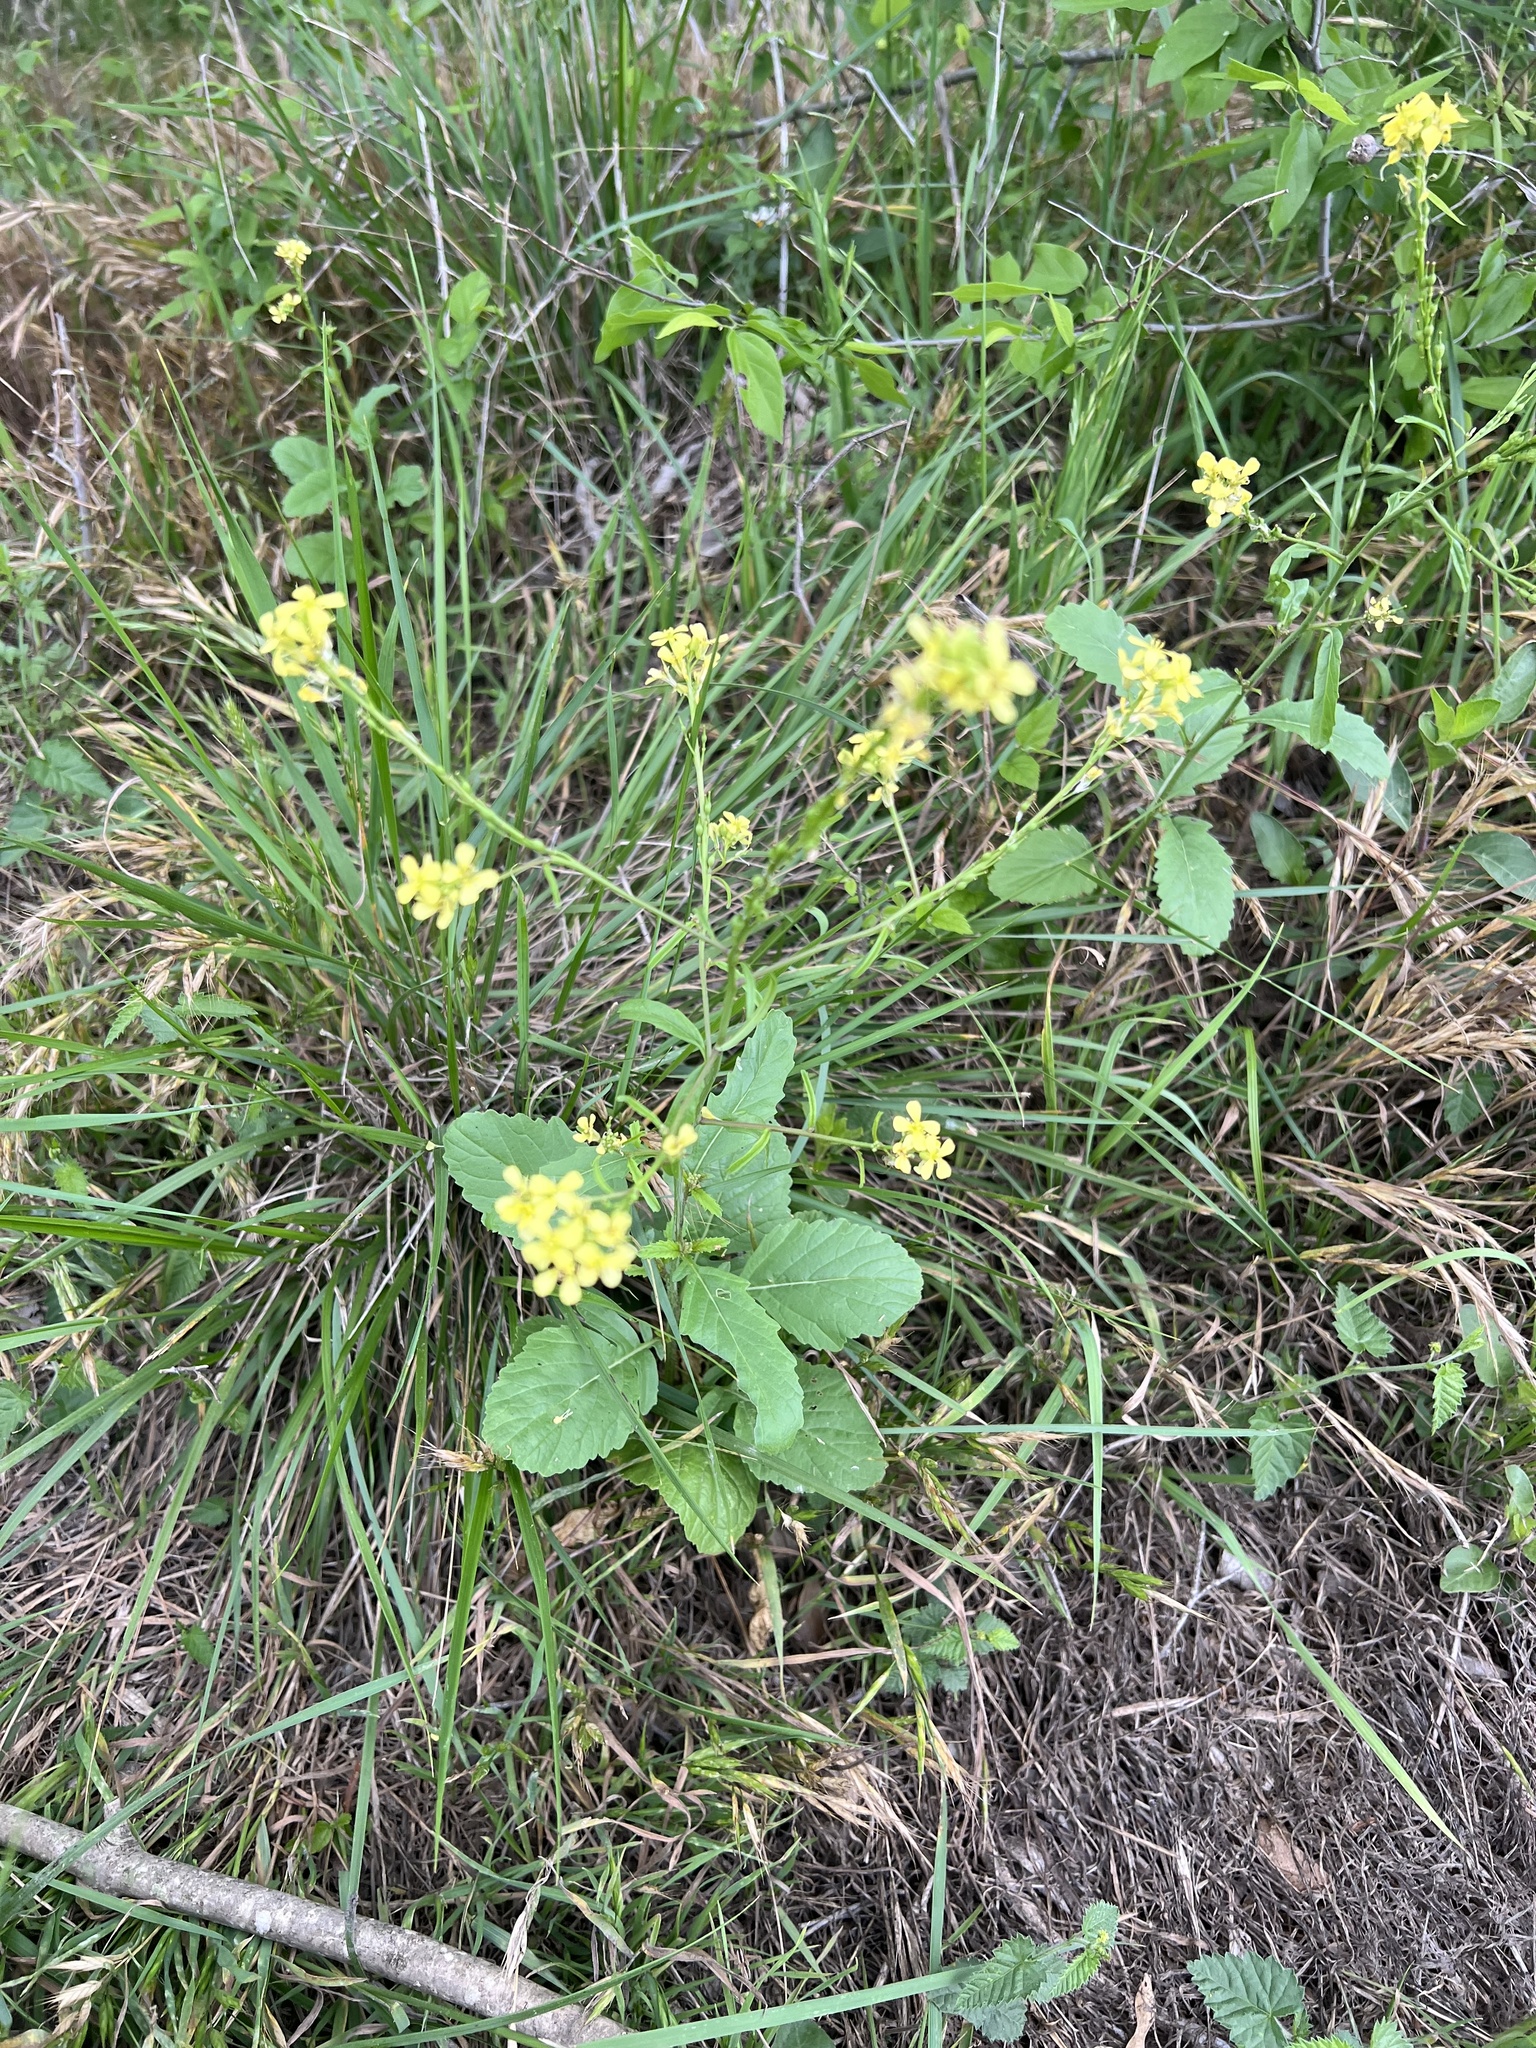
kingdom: Plantae
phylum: Tracheophyta
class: Magnoliopsida
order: Brassicales
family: Brassicaceae
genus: Rapistrum
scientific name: Rapistrum rugosum
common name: Annual bastardcabbage
